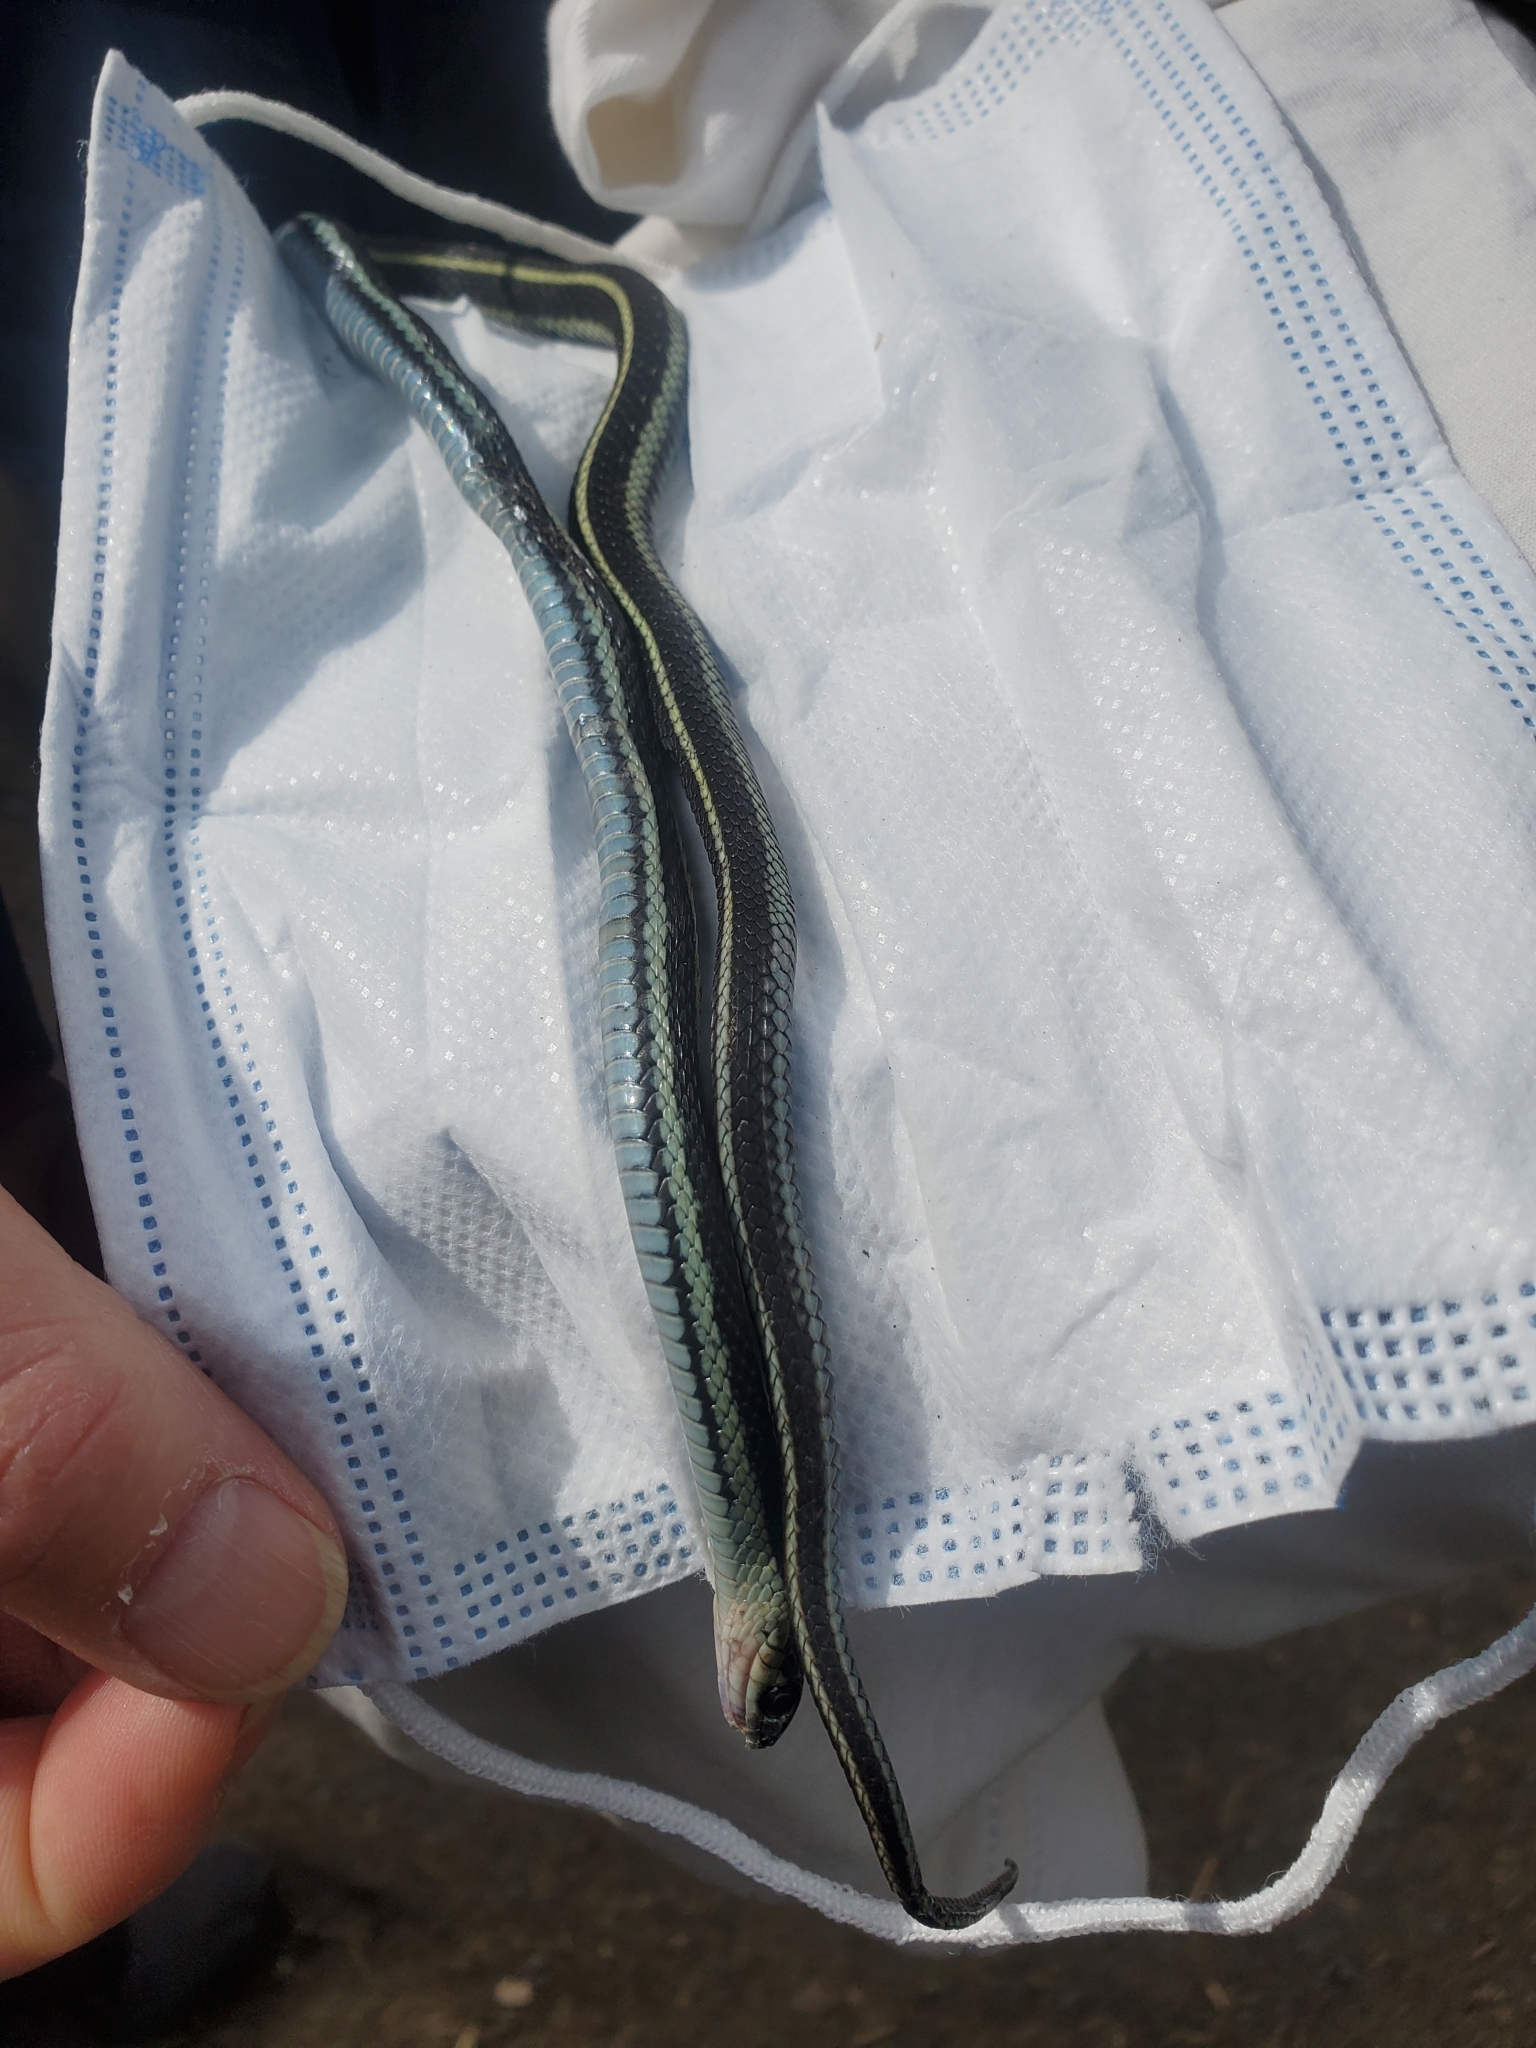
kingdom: Animalia
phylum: Chordata
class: Squamata
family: Colubridae
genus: Thamnophis
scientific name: Thamnophis sirtalis
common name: Common garter snake
